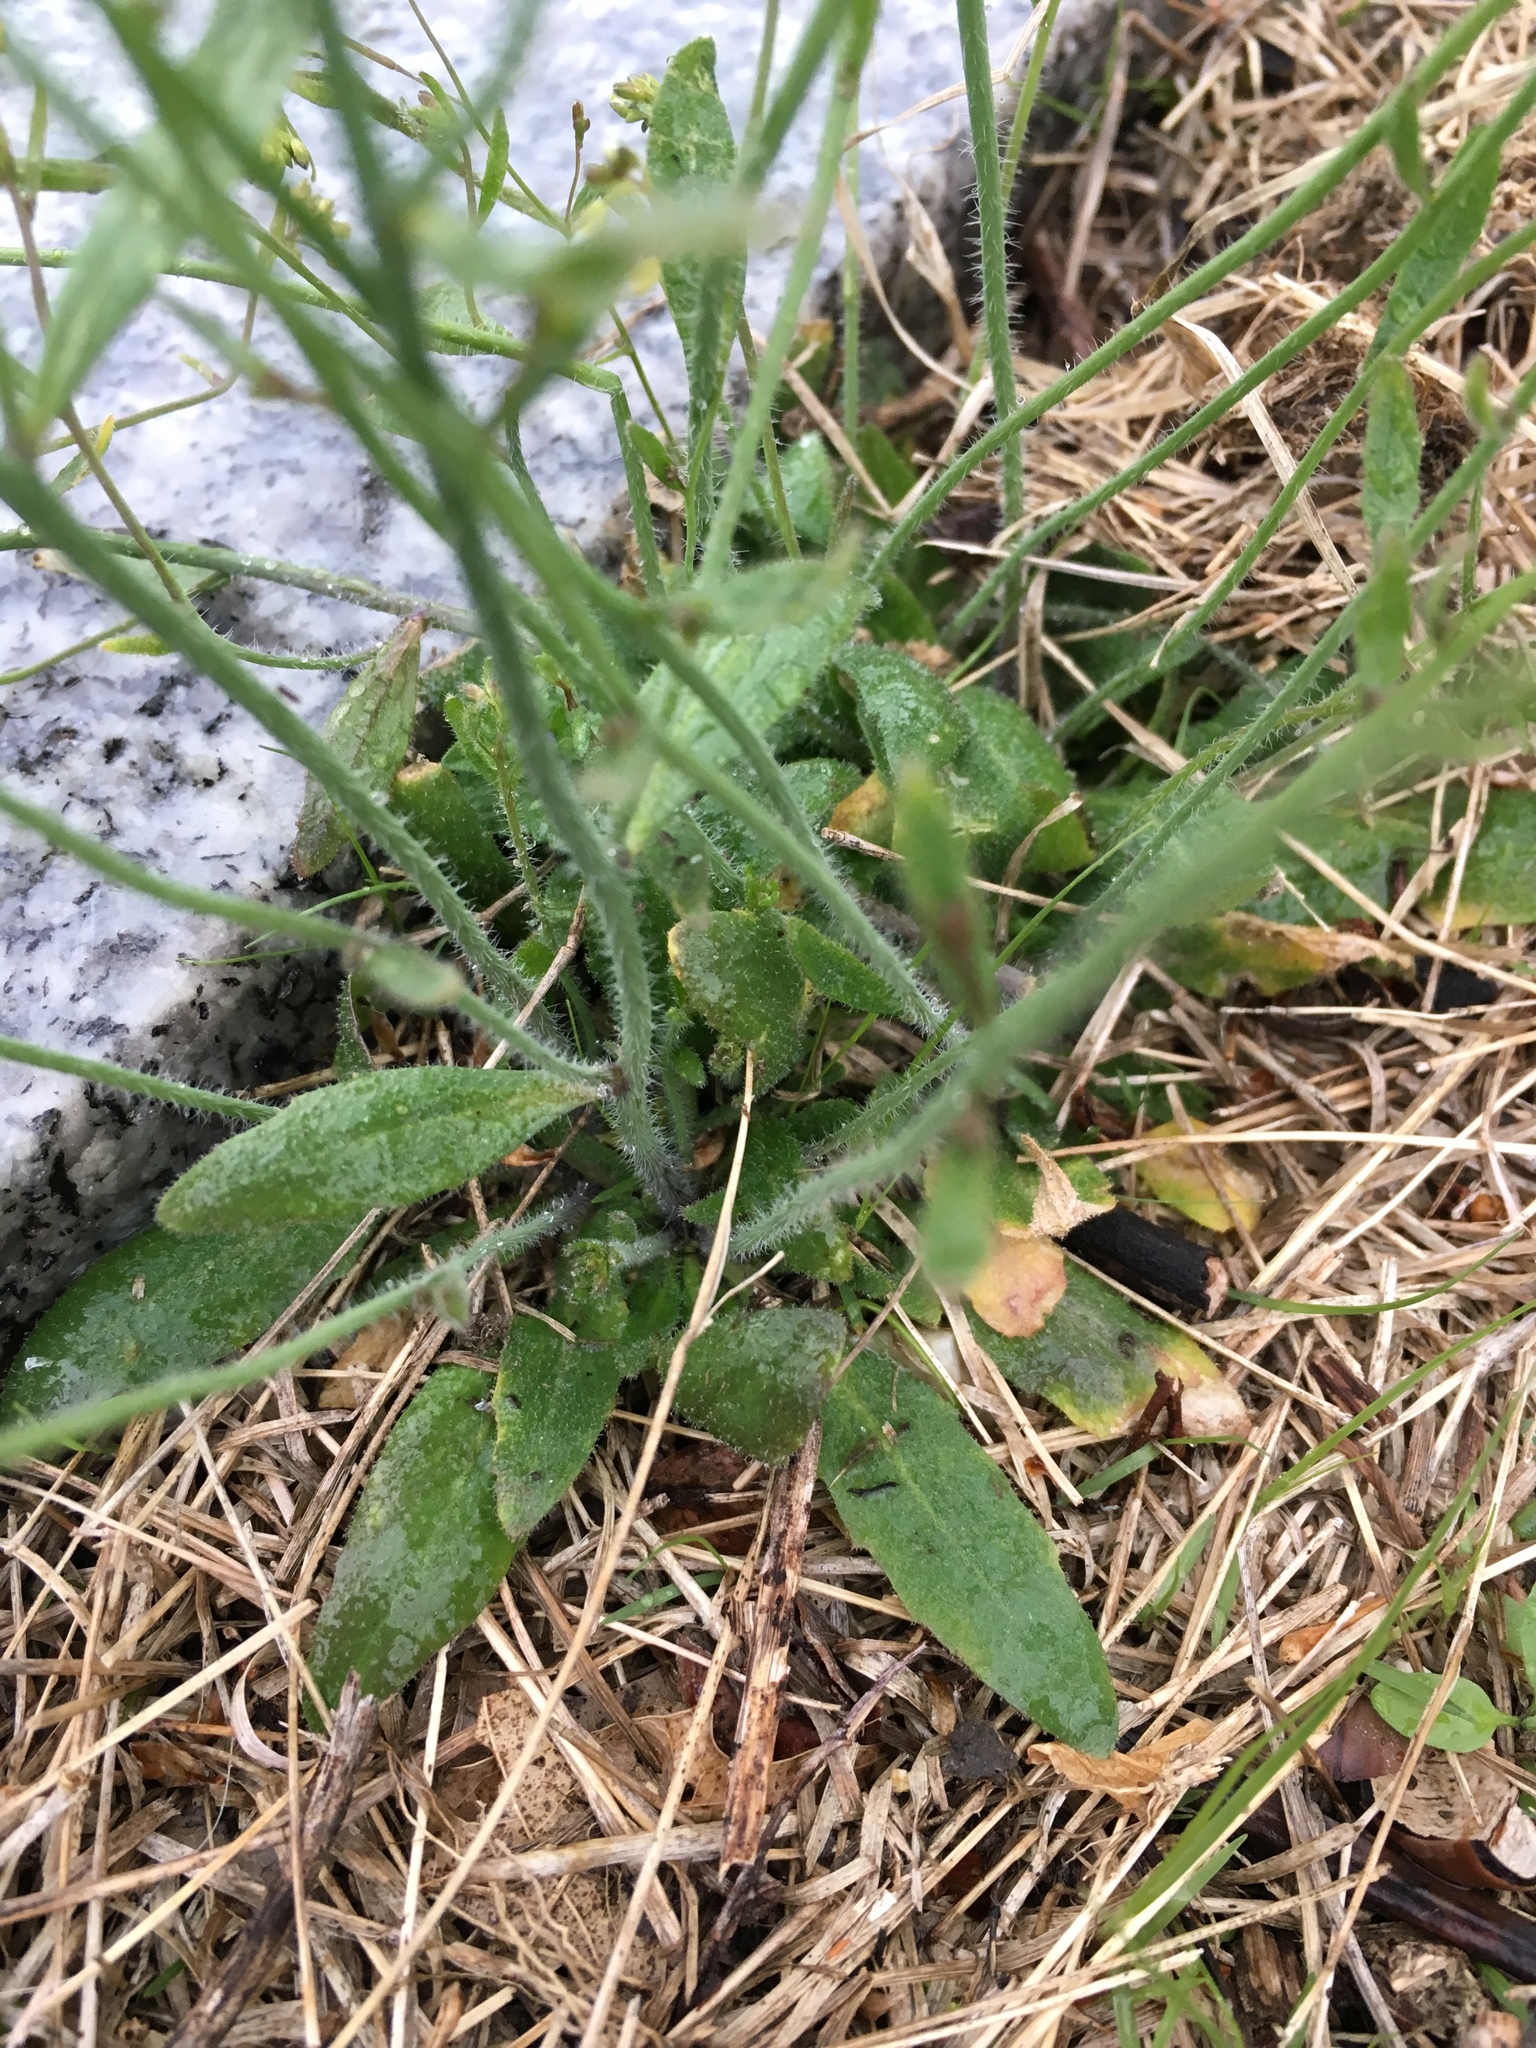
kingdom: Plantae
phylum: Tracheophyta
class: Magnoliopsida
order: Brassicales
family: Brassicaceae
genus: Arabidopsis
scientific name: Arabidopsis thaliana
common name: Thale cress
